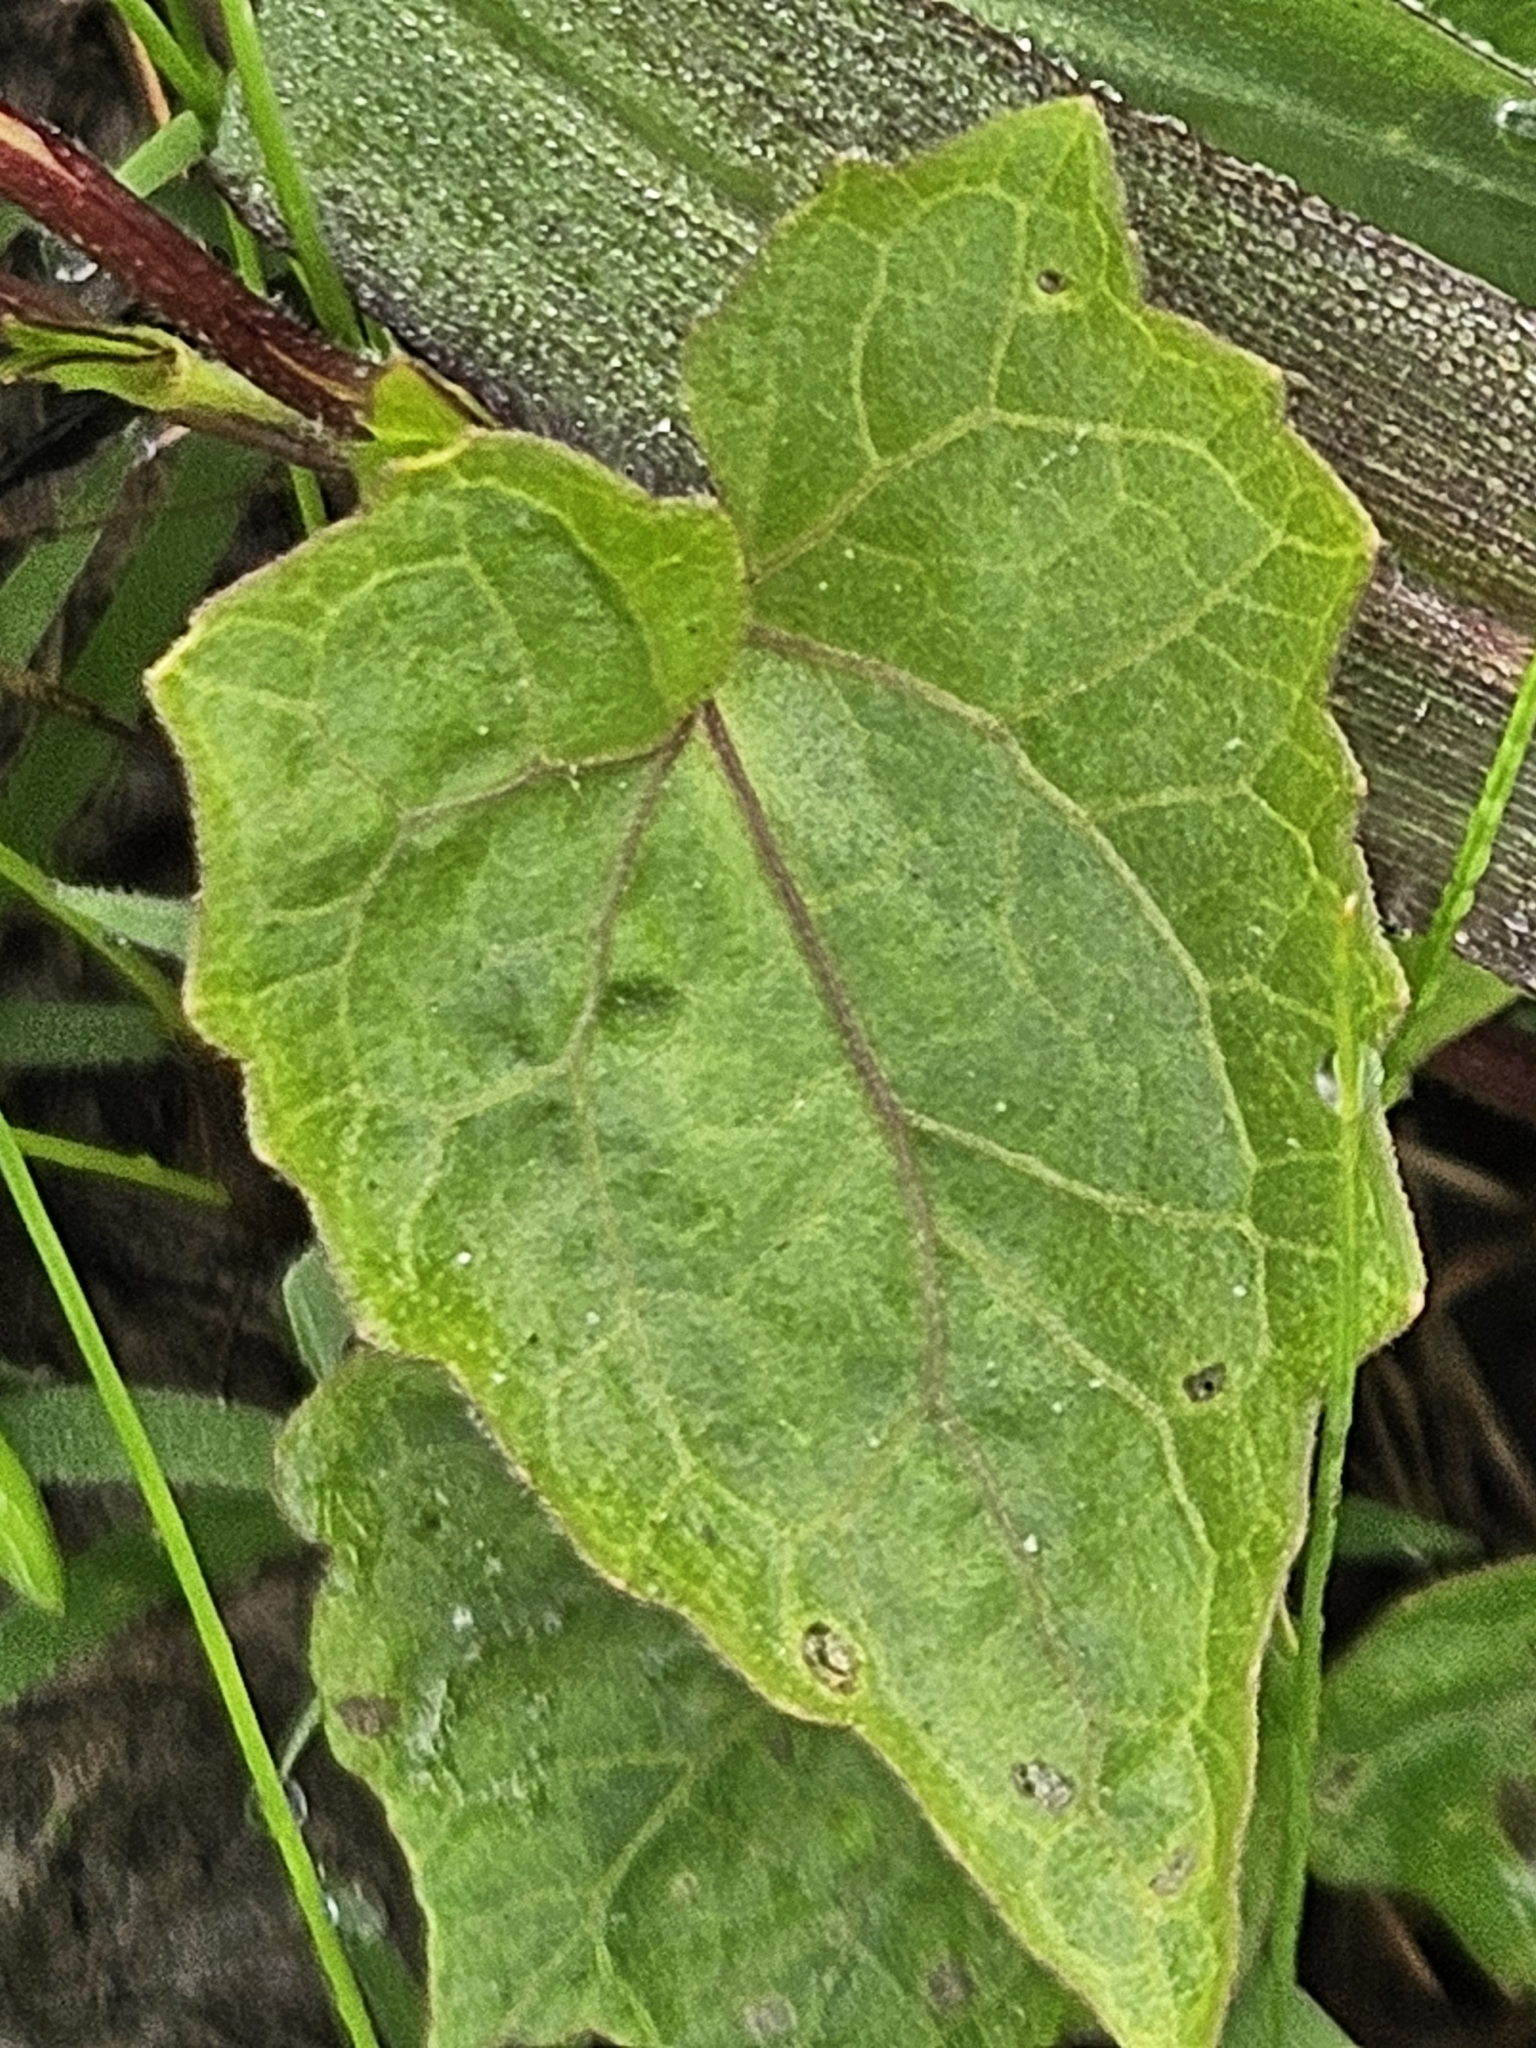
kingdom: Plantae
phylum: Tracheophyta
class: Magnoliopsida
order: Asterales
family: Asteraceae
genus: Mikania
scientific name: Mikania scandens
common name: Climbing hempvine
